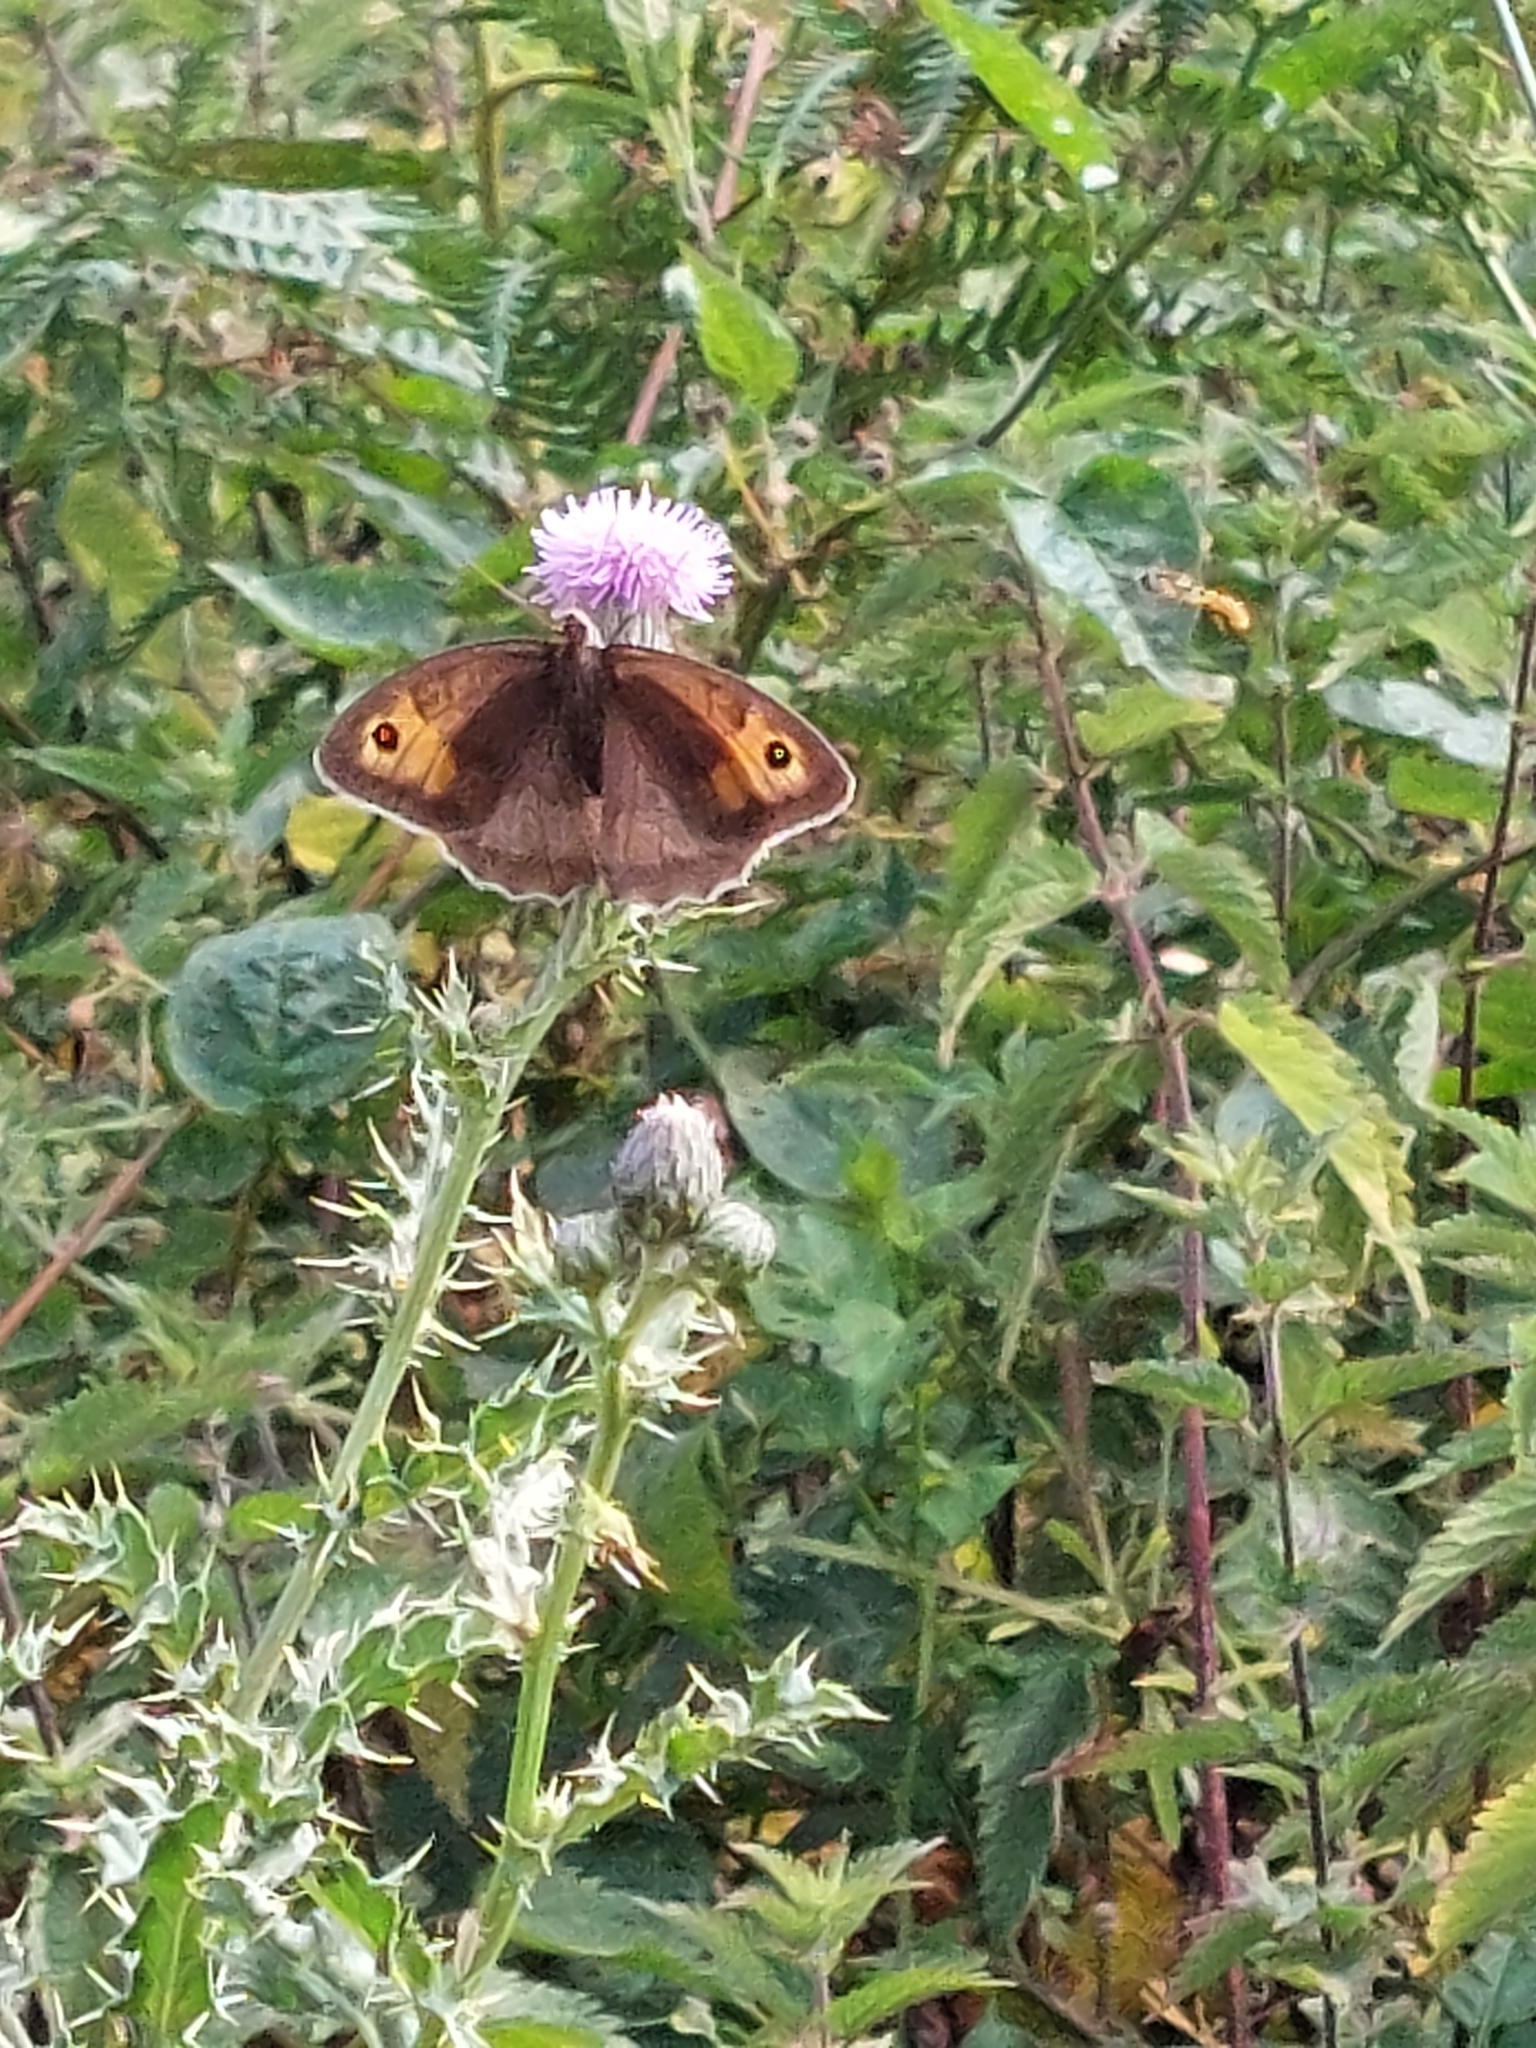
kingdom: Animalia
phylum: Arthropoda
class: Insecta
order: Lepidoptera
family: Nymphalidae
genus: Maniola
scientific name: Maniola jurtina
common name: Meadow brown
